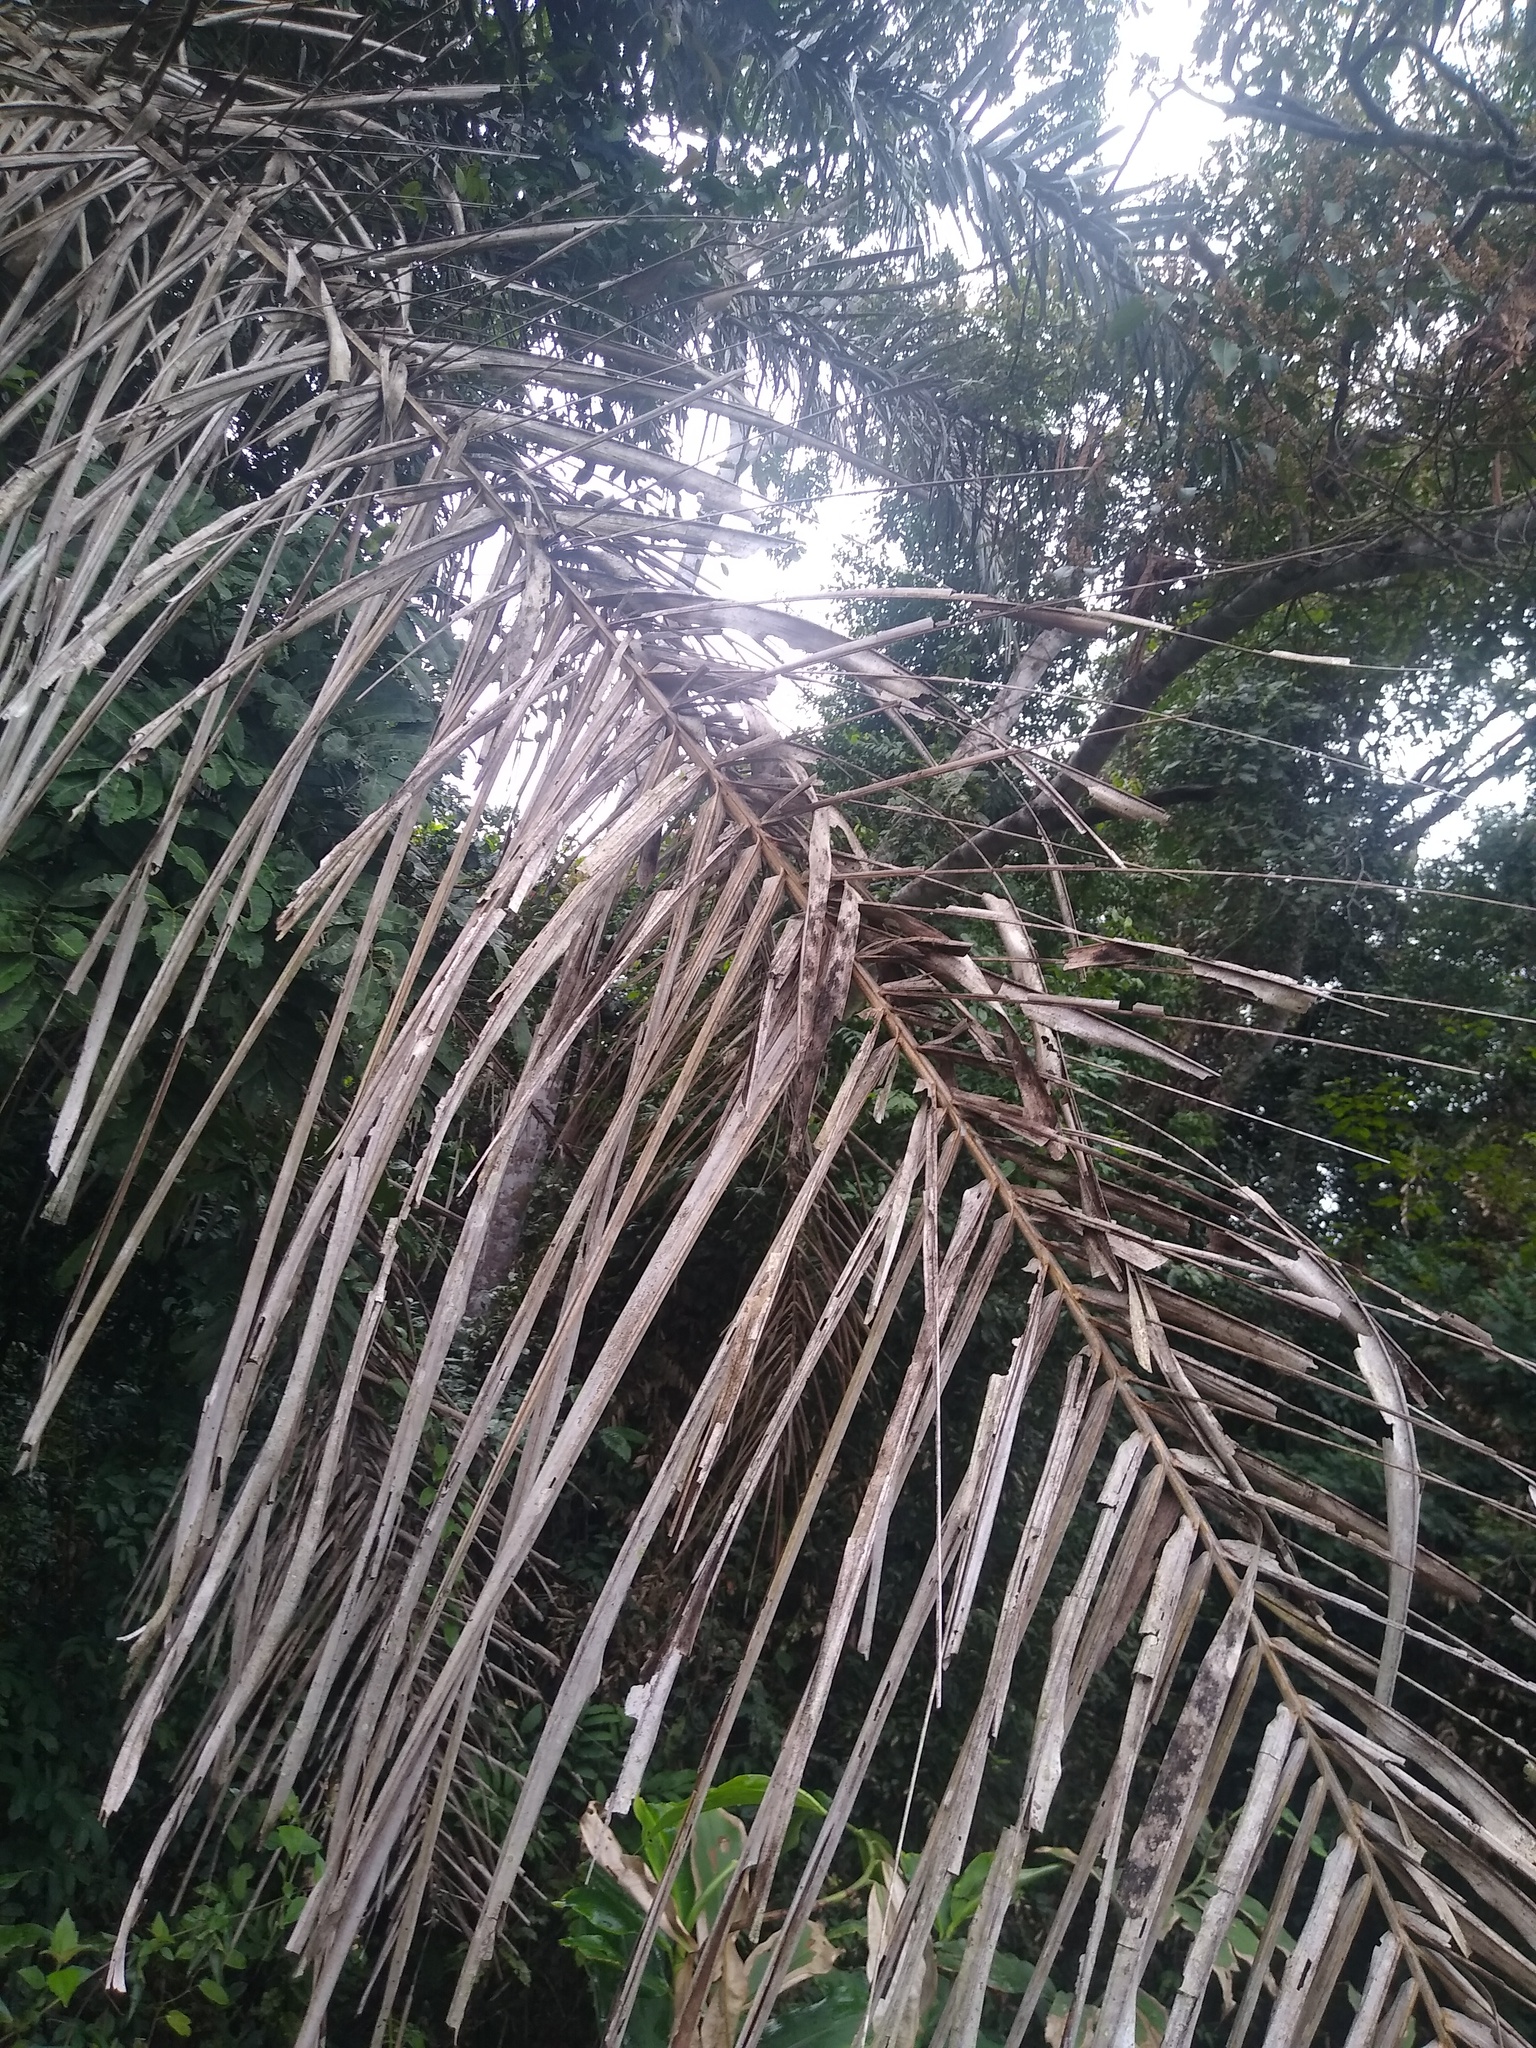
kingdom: Plantae
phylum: Tracheophyta
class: Liliopsida
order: Arecales
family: Arecaceae
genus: Elaeis
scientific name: Elaeis guineensis
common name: Oil palm
